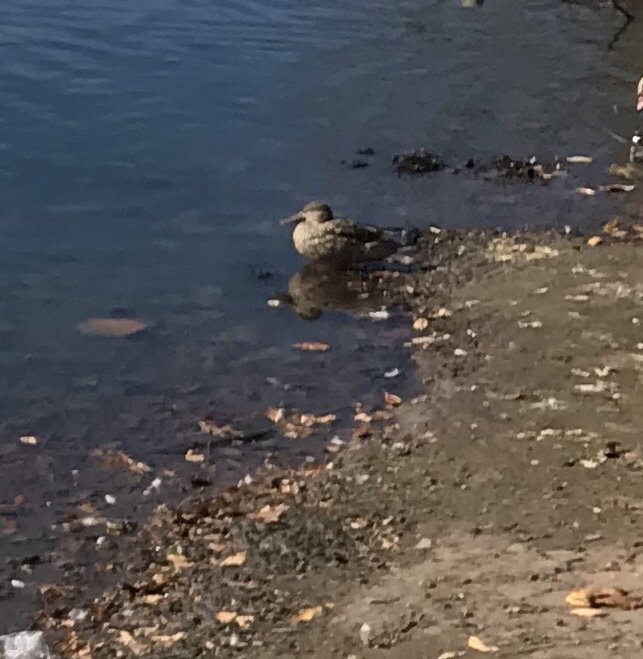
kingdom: Animalia
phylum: Chordata
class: Aves
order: Anseriformes
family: Anatidae
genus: Spatula
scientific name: Spatula clypeata
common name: Northern shoveler
